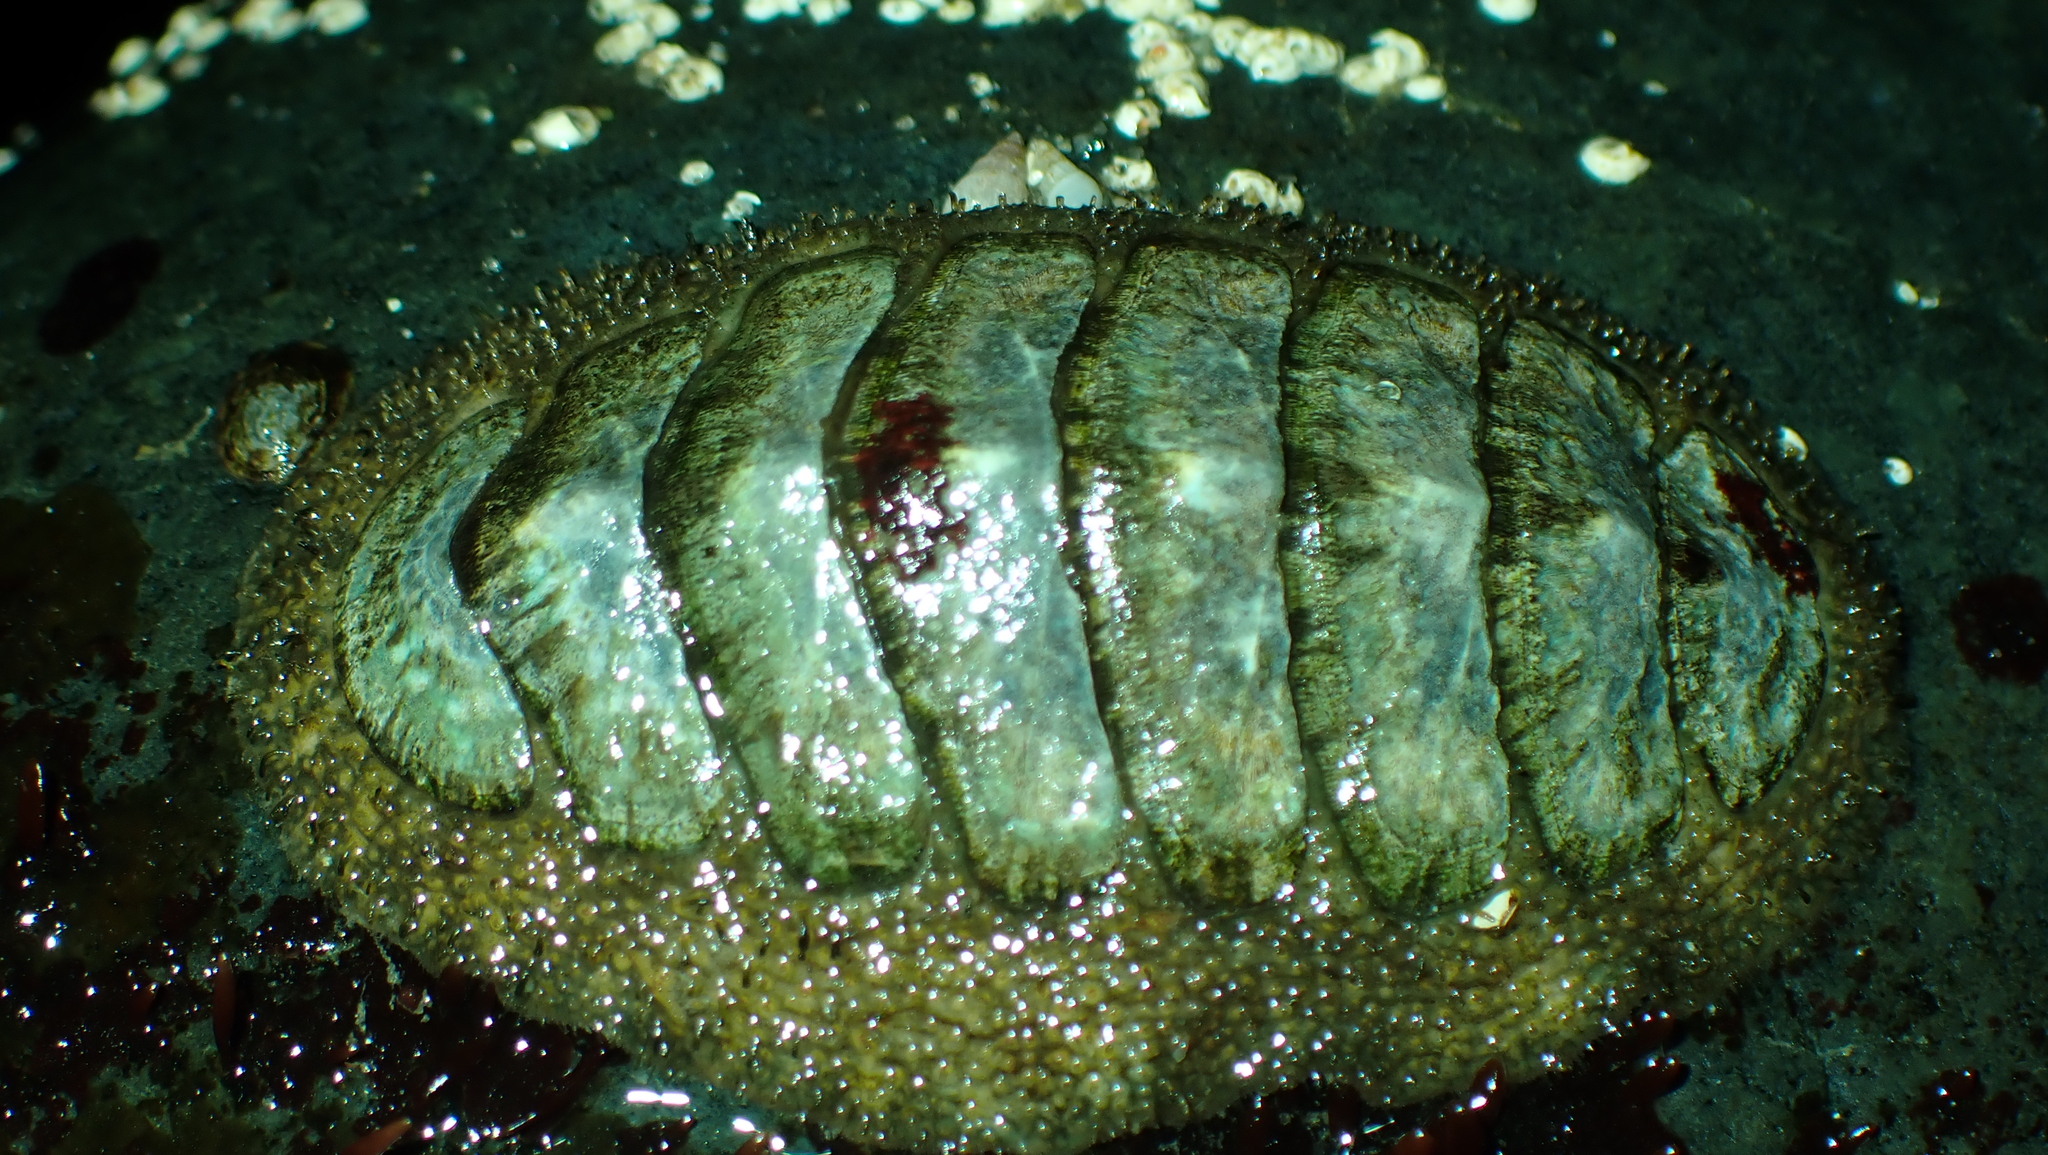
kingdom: Animalia
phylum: Mollusca
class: Polyplacophora
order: Chitonida
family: Mopaliidae
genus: Mopalia
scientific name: Mopalia lignosa
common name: Woody chiton
